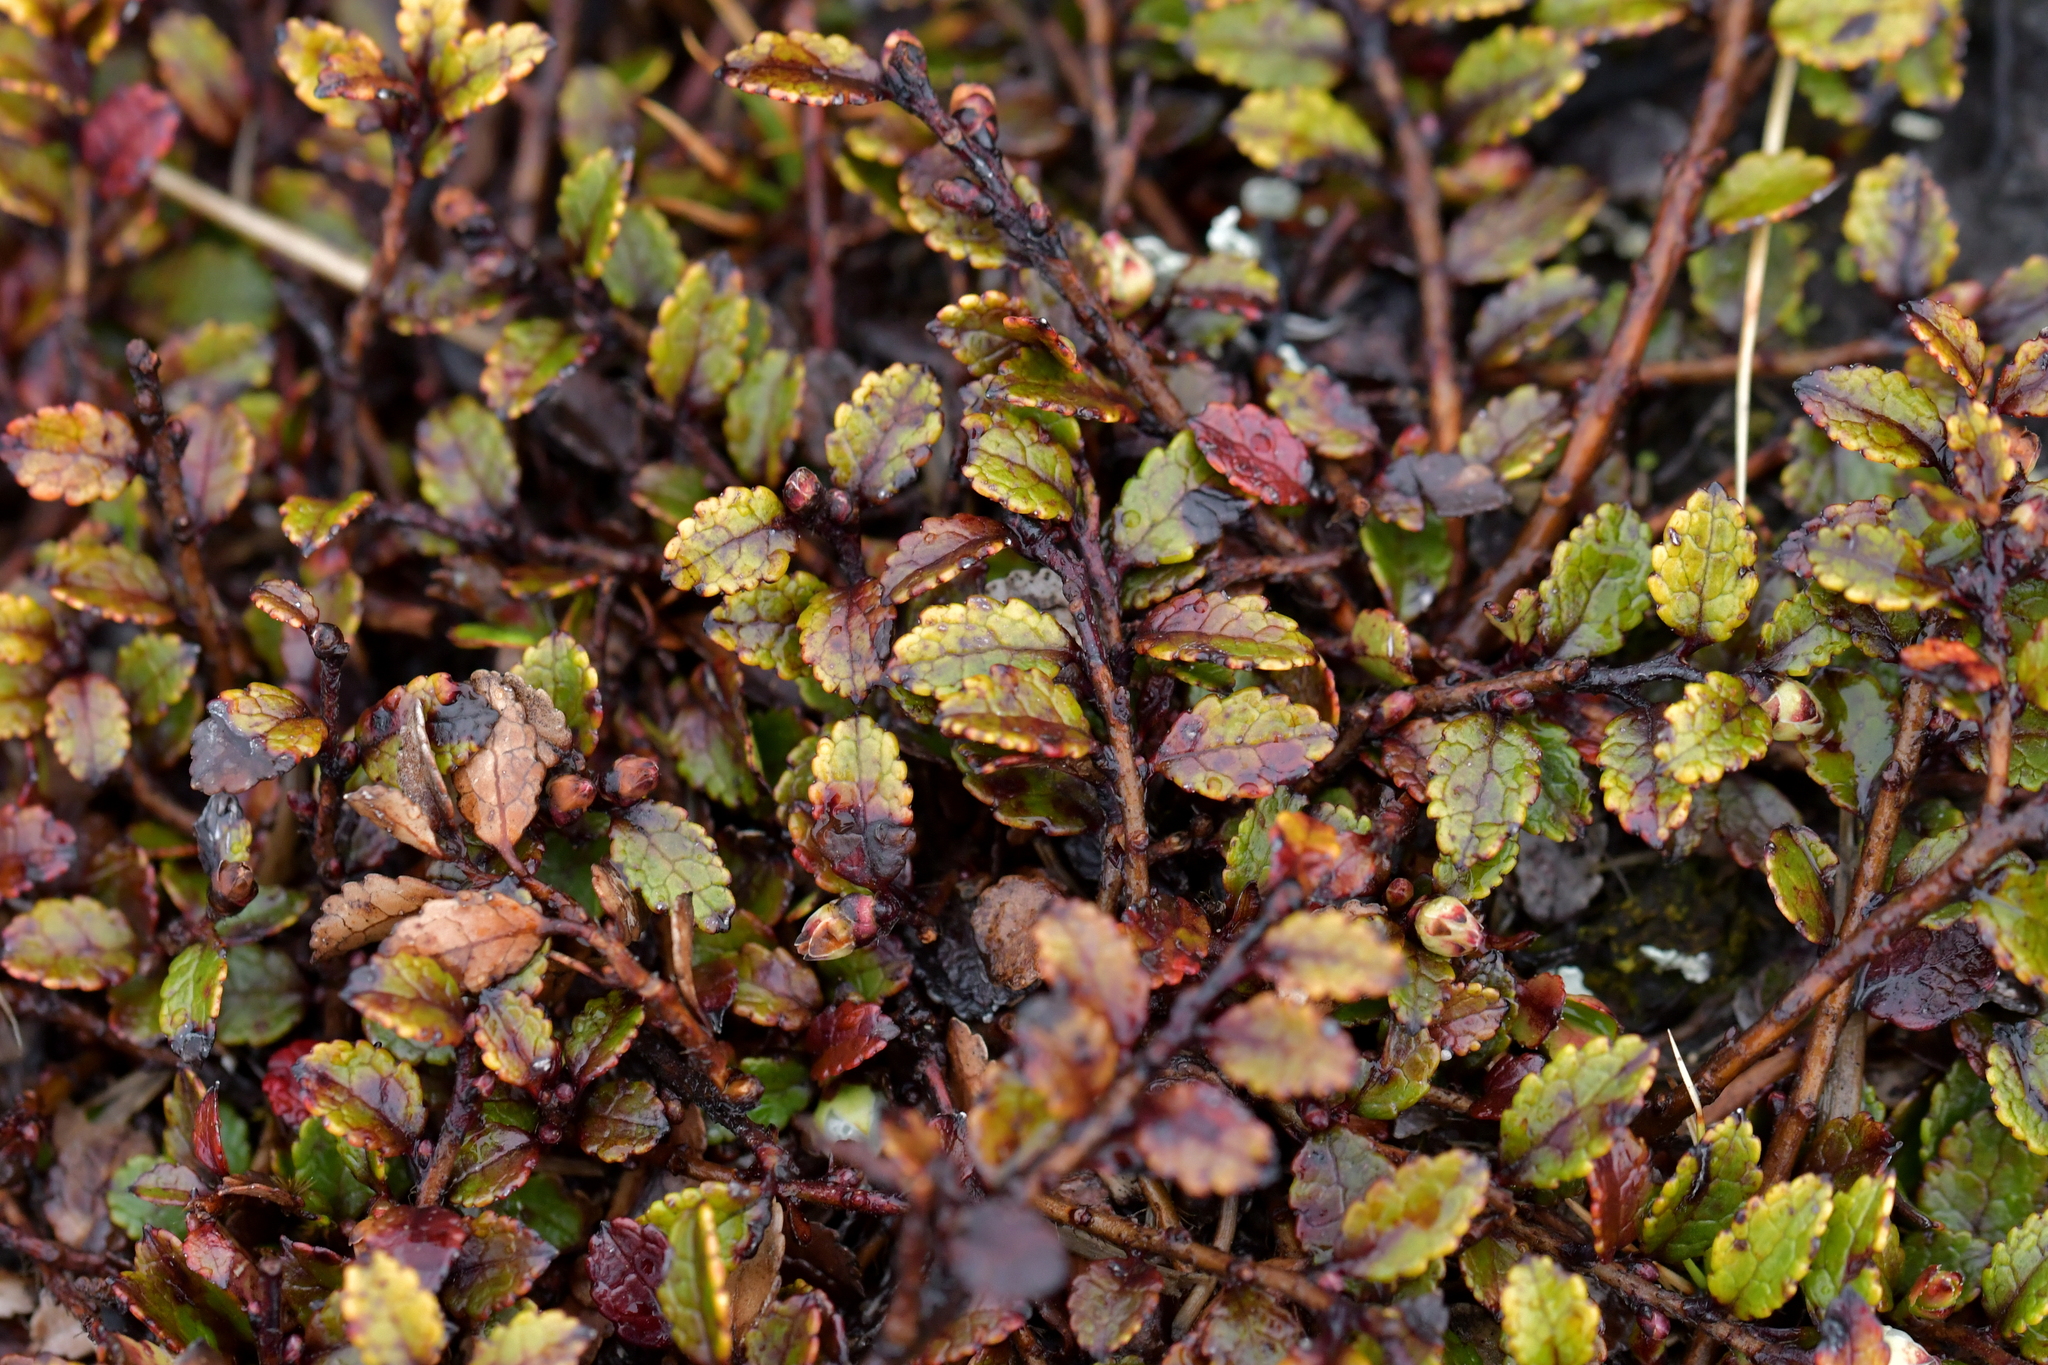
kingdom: Plantae
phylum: Tracheophyta
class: Magnoliopsida
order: Ericales
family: Ericaceae
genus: Gaultheria
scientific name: Gaultheria depressa
